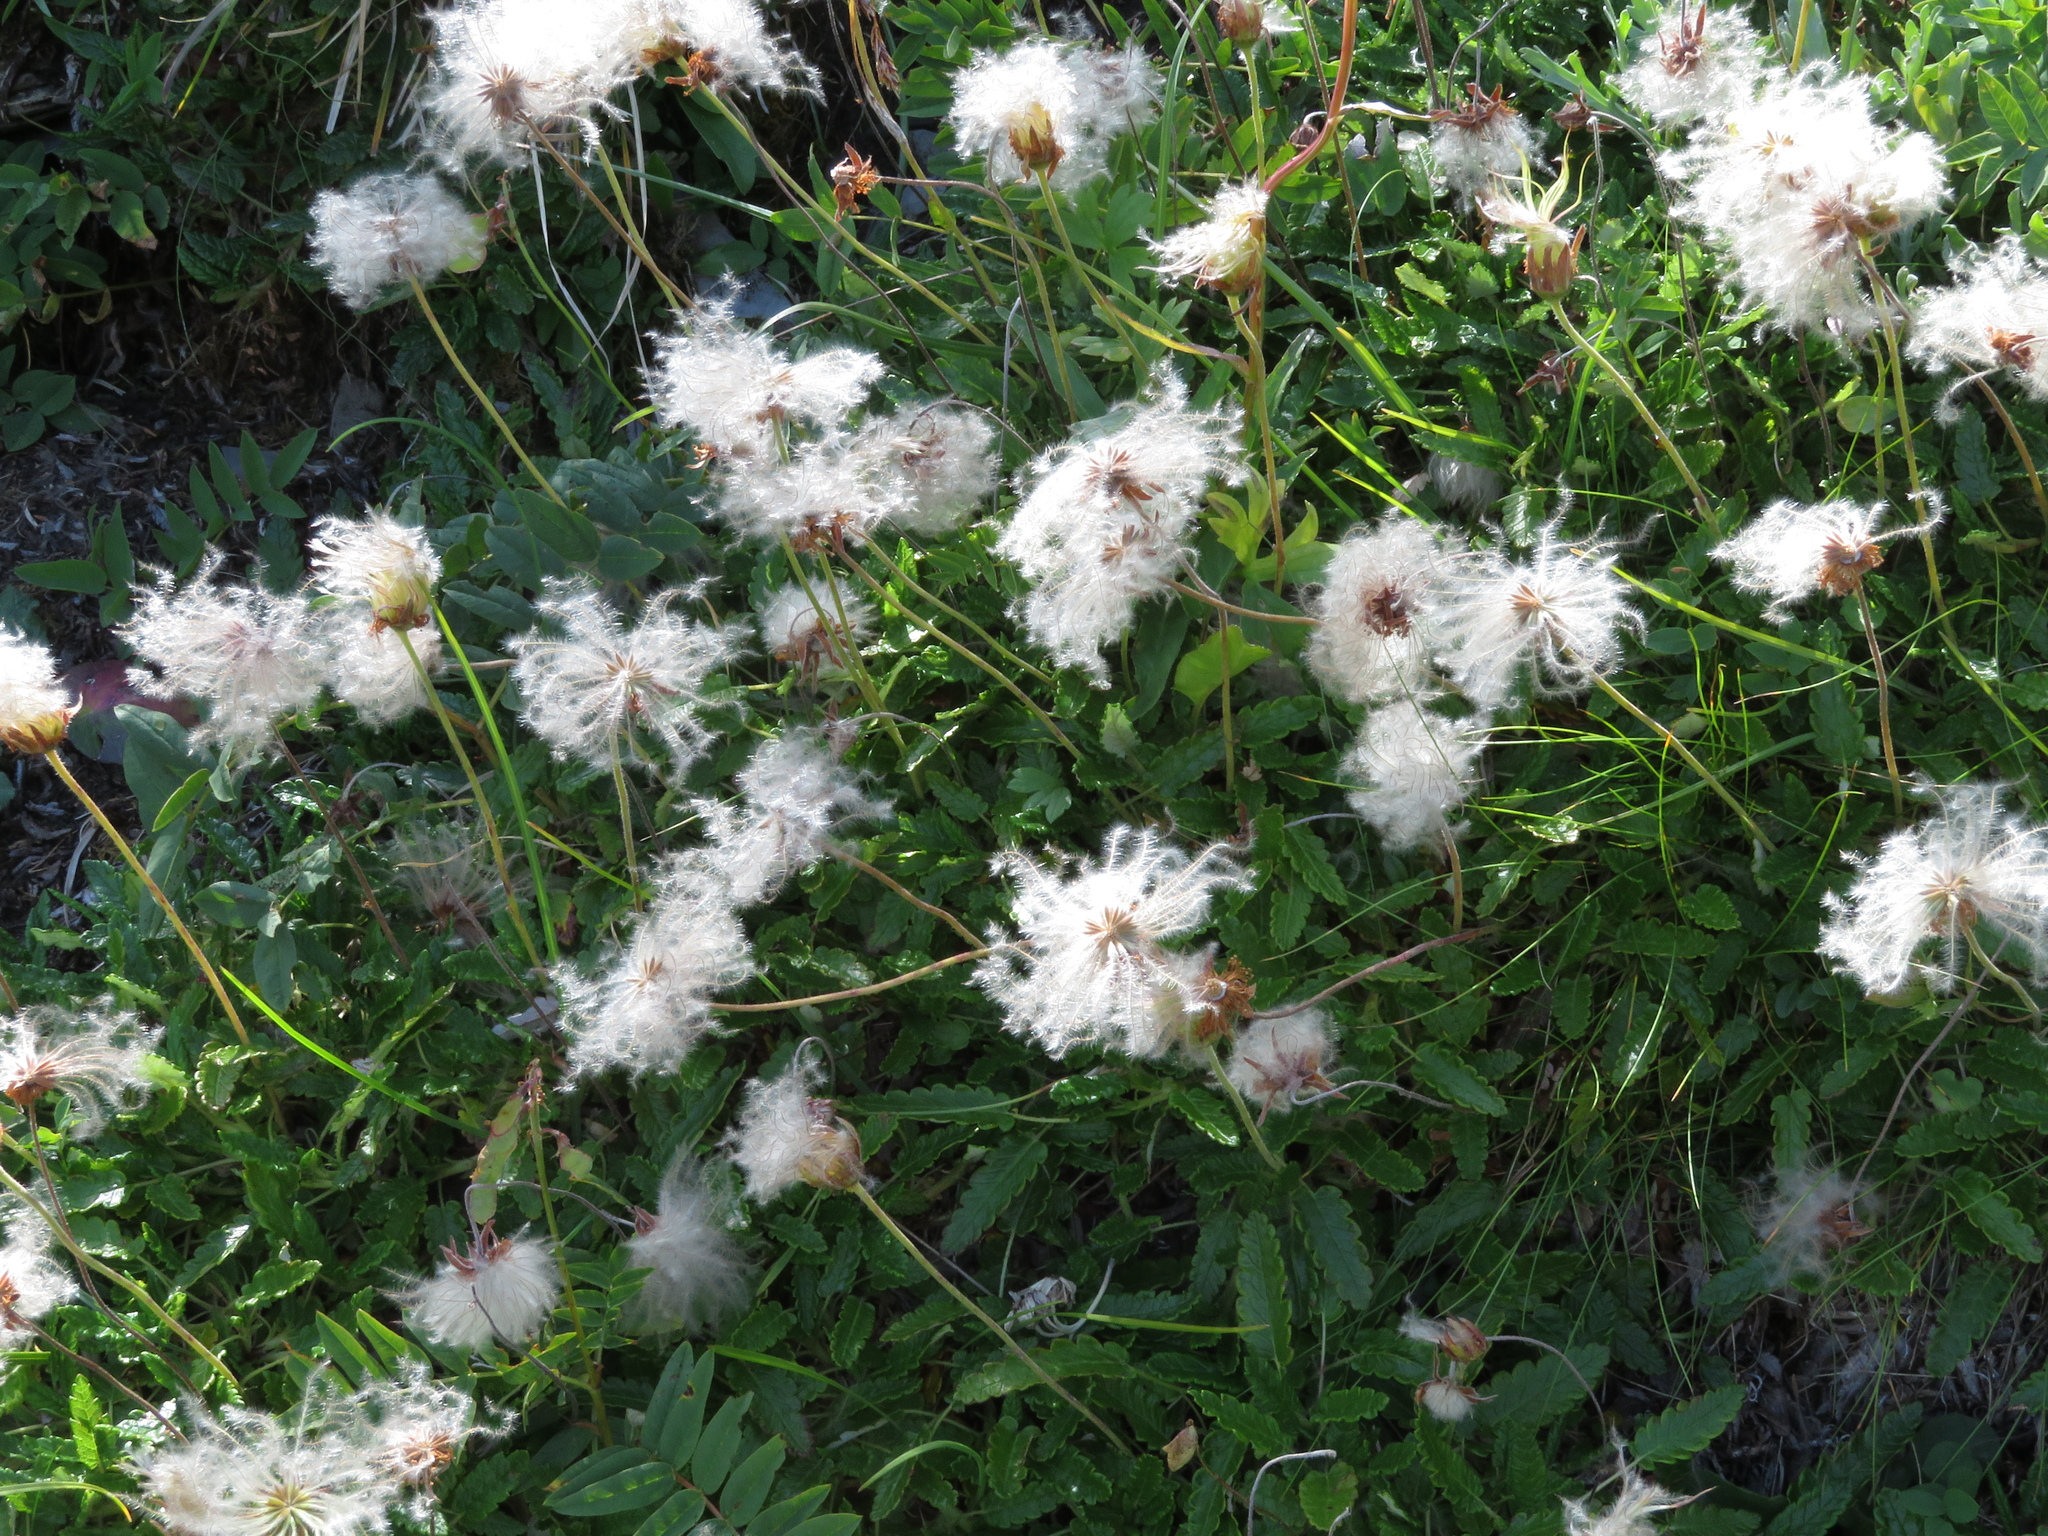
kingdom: Plantae
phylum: Tracheophyta
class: Magnoliopsida
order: Rosales
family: Rosaceae
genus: Dryas
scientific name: Dryas octopetala
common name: Eight-petal mountain-avens
